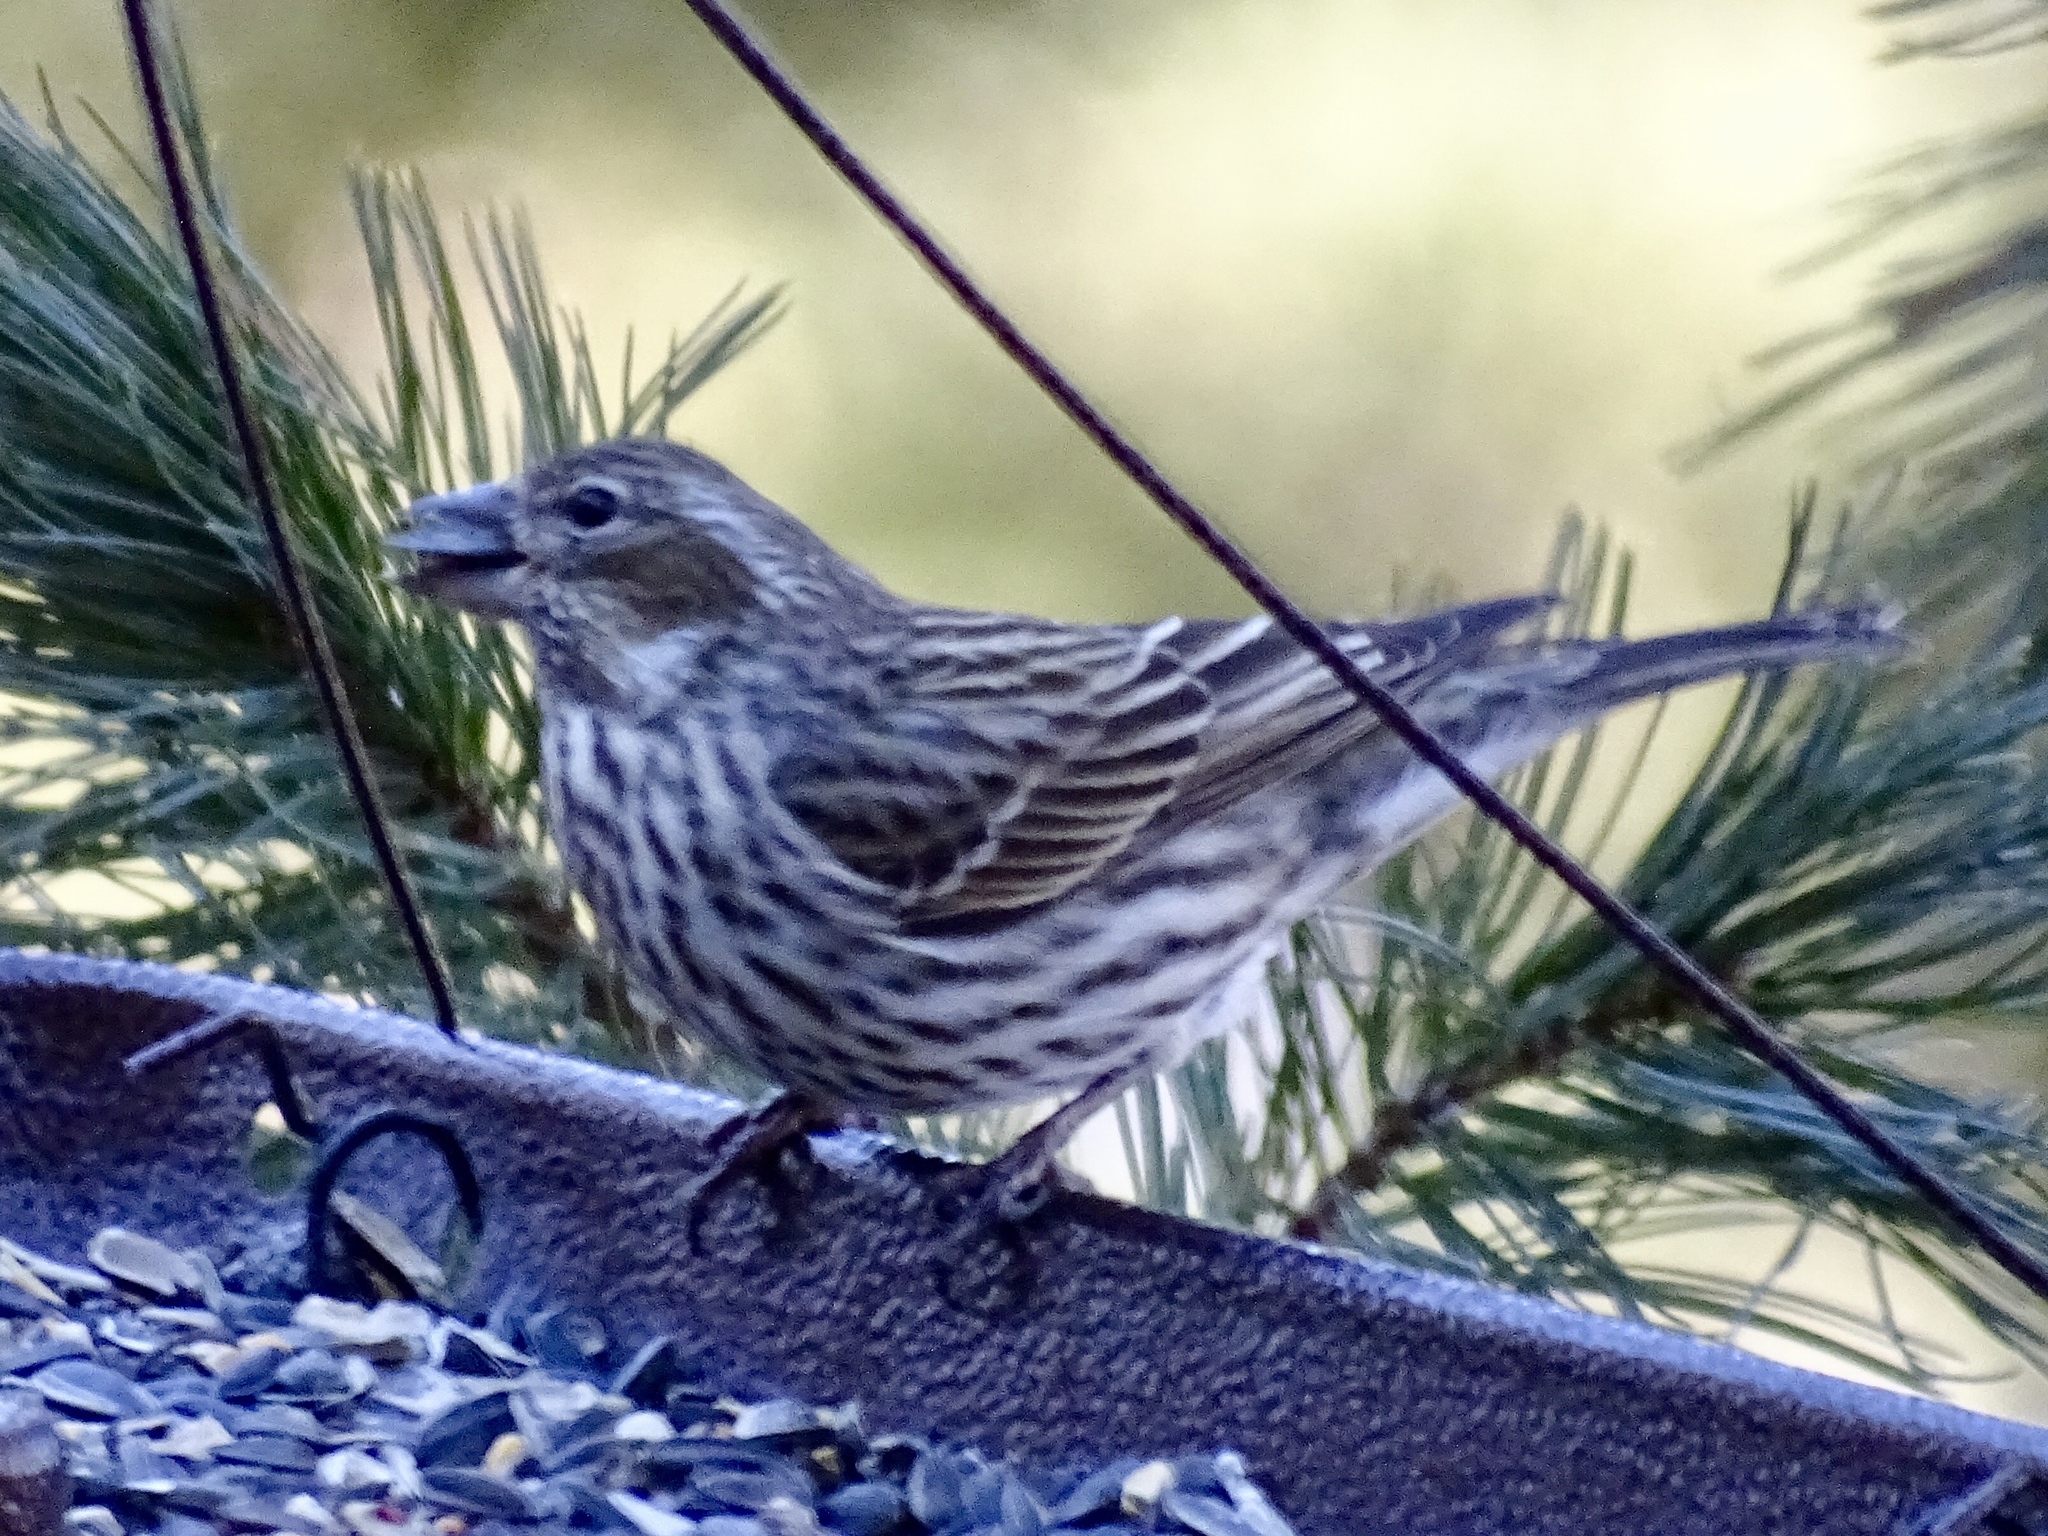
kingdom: Animalia
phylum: Chordata
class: Aves
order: Passeriformes
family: Fringillidae
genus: Haemorhous
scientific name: Haemorhous cassinii
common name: Cassin's finch
